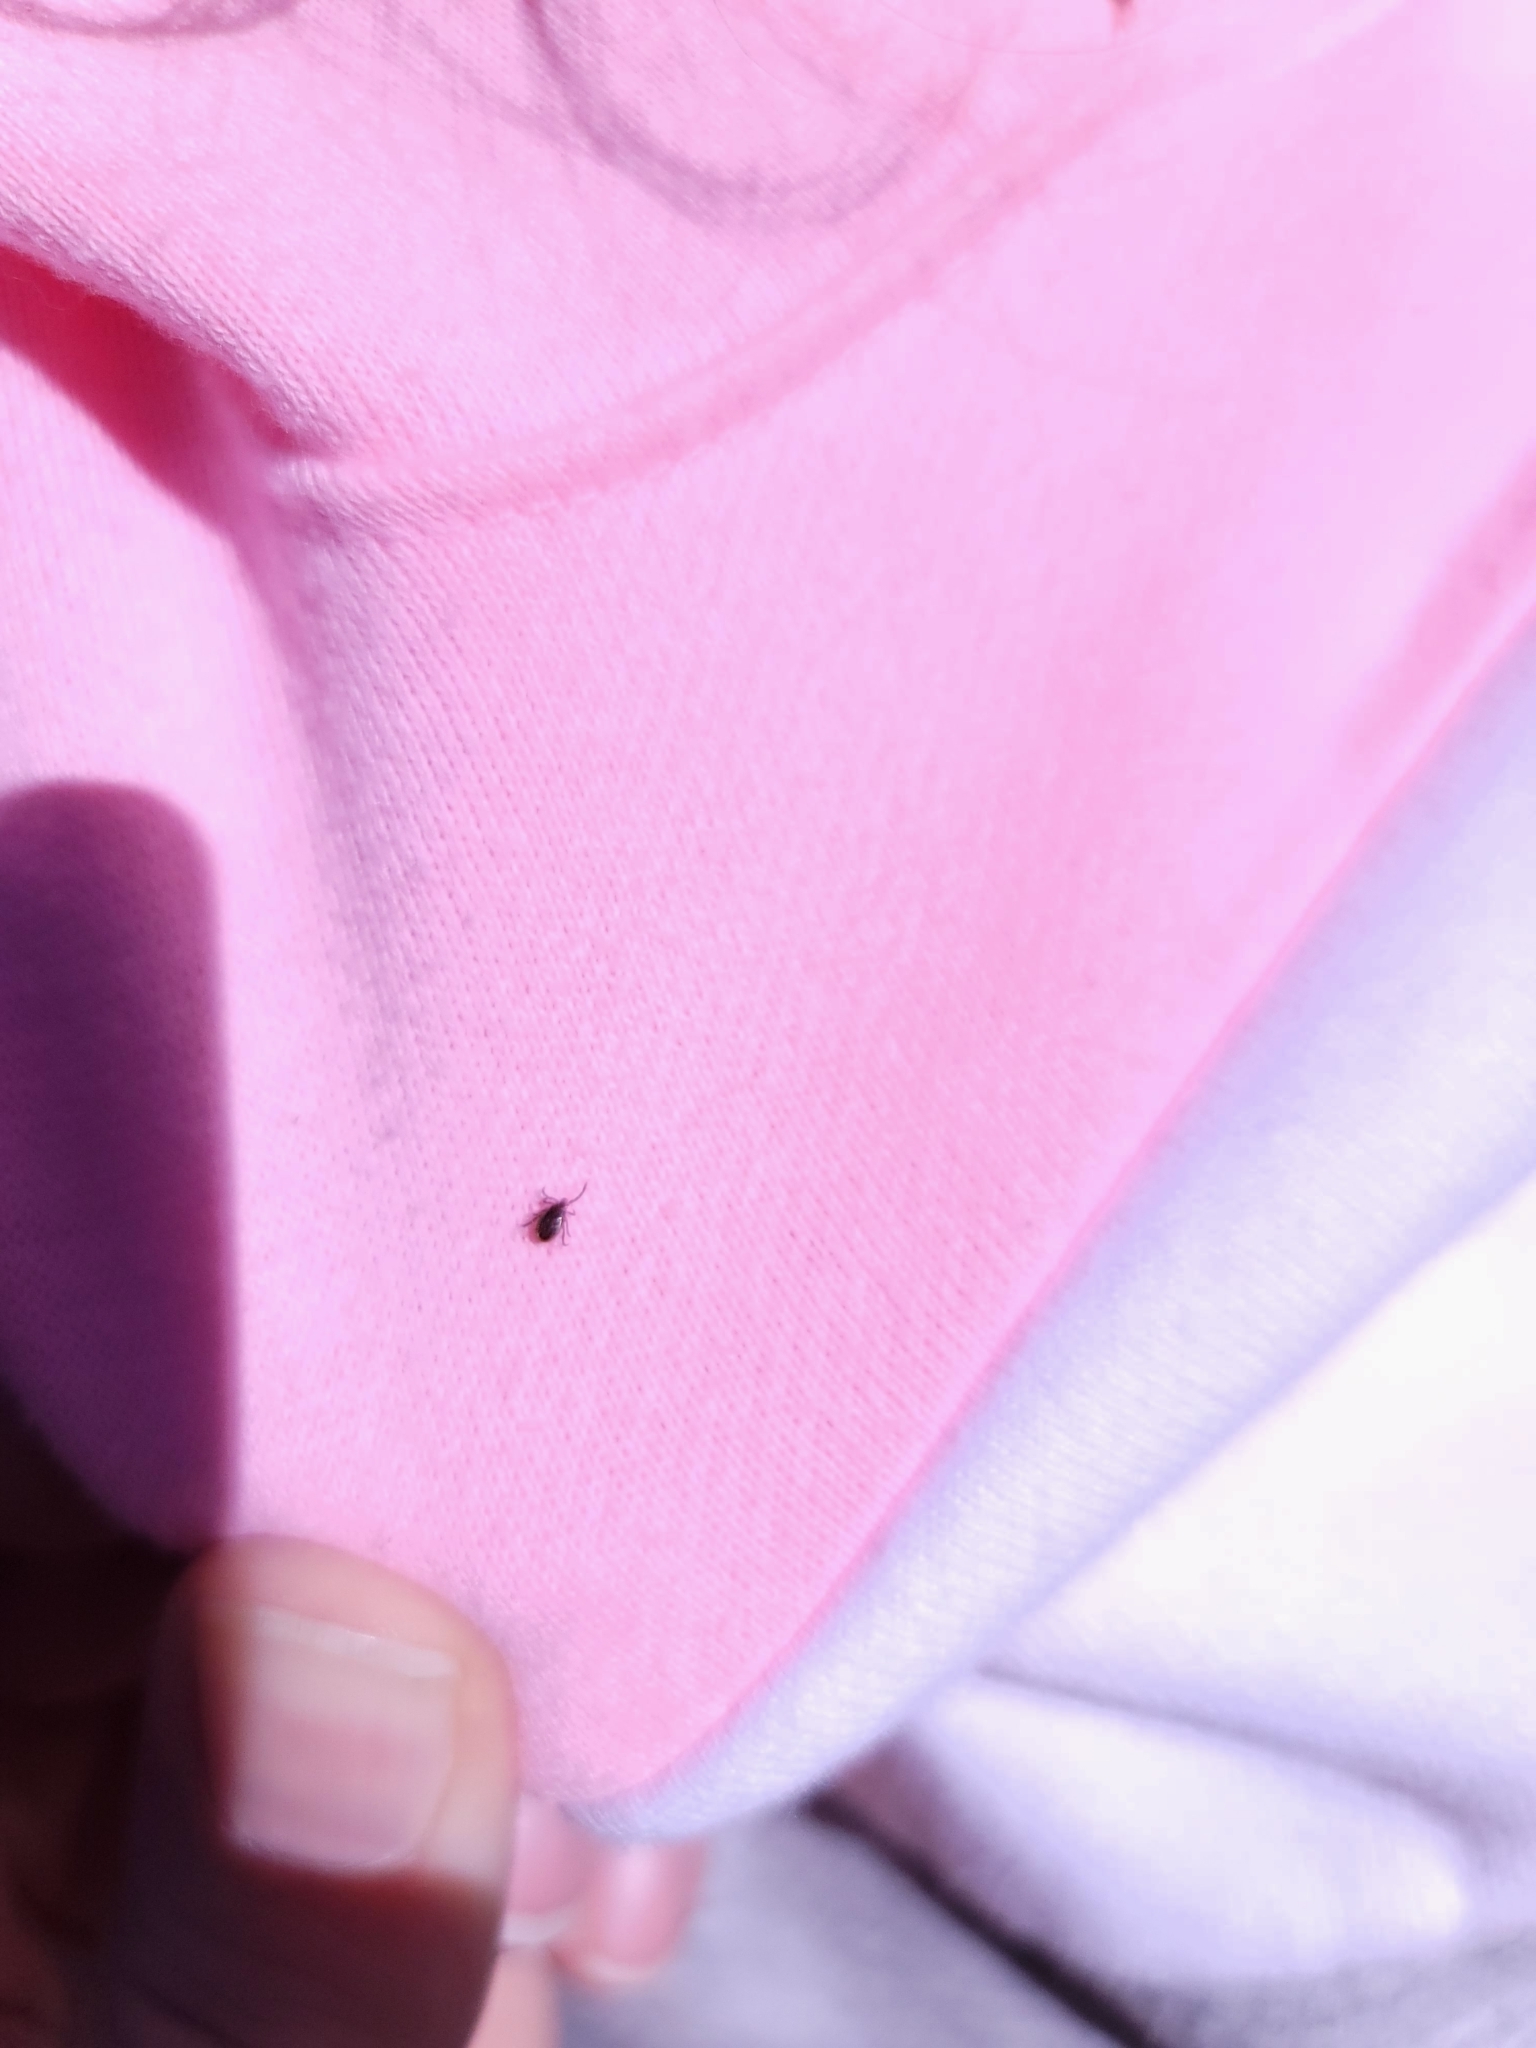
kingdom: Animalia
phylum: Arthropoda
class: Arachnida
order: Ixodida
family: Ixodidae
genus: Ixodes
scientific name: Ixodes scapularis
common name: Black legged tick
